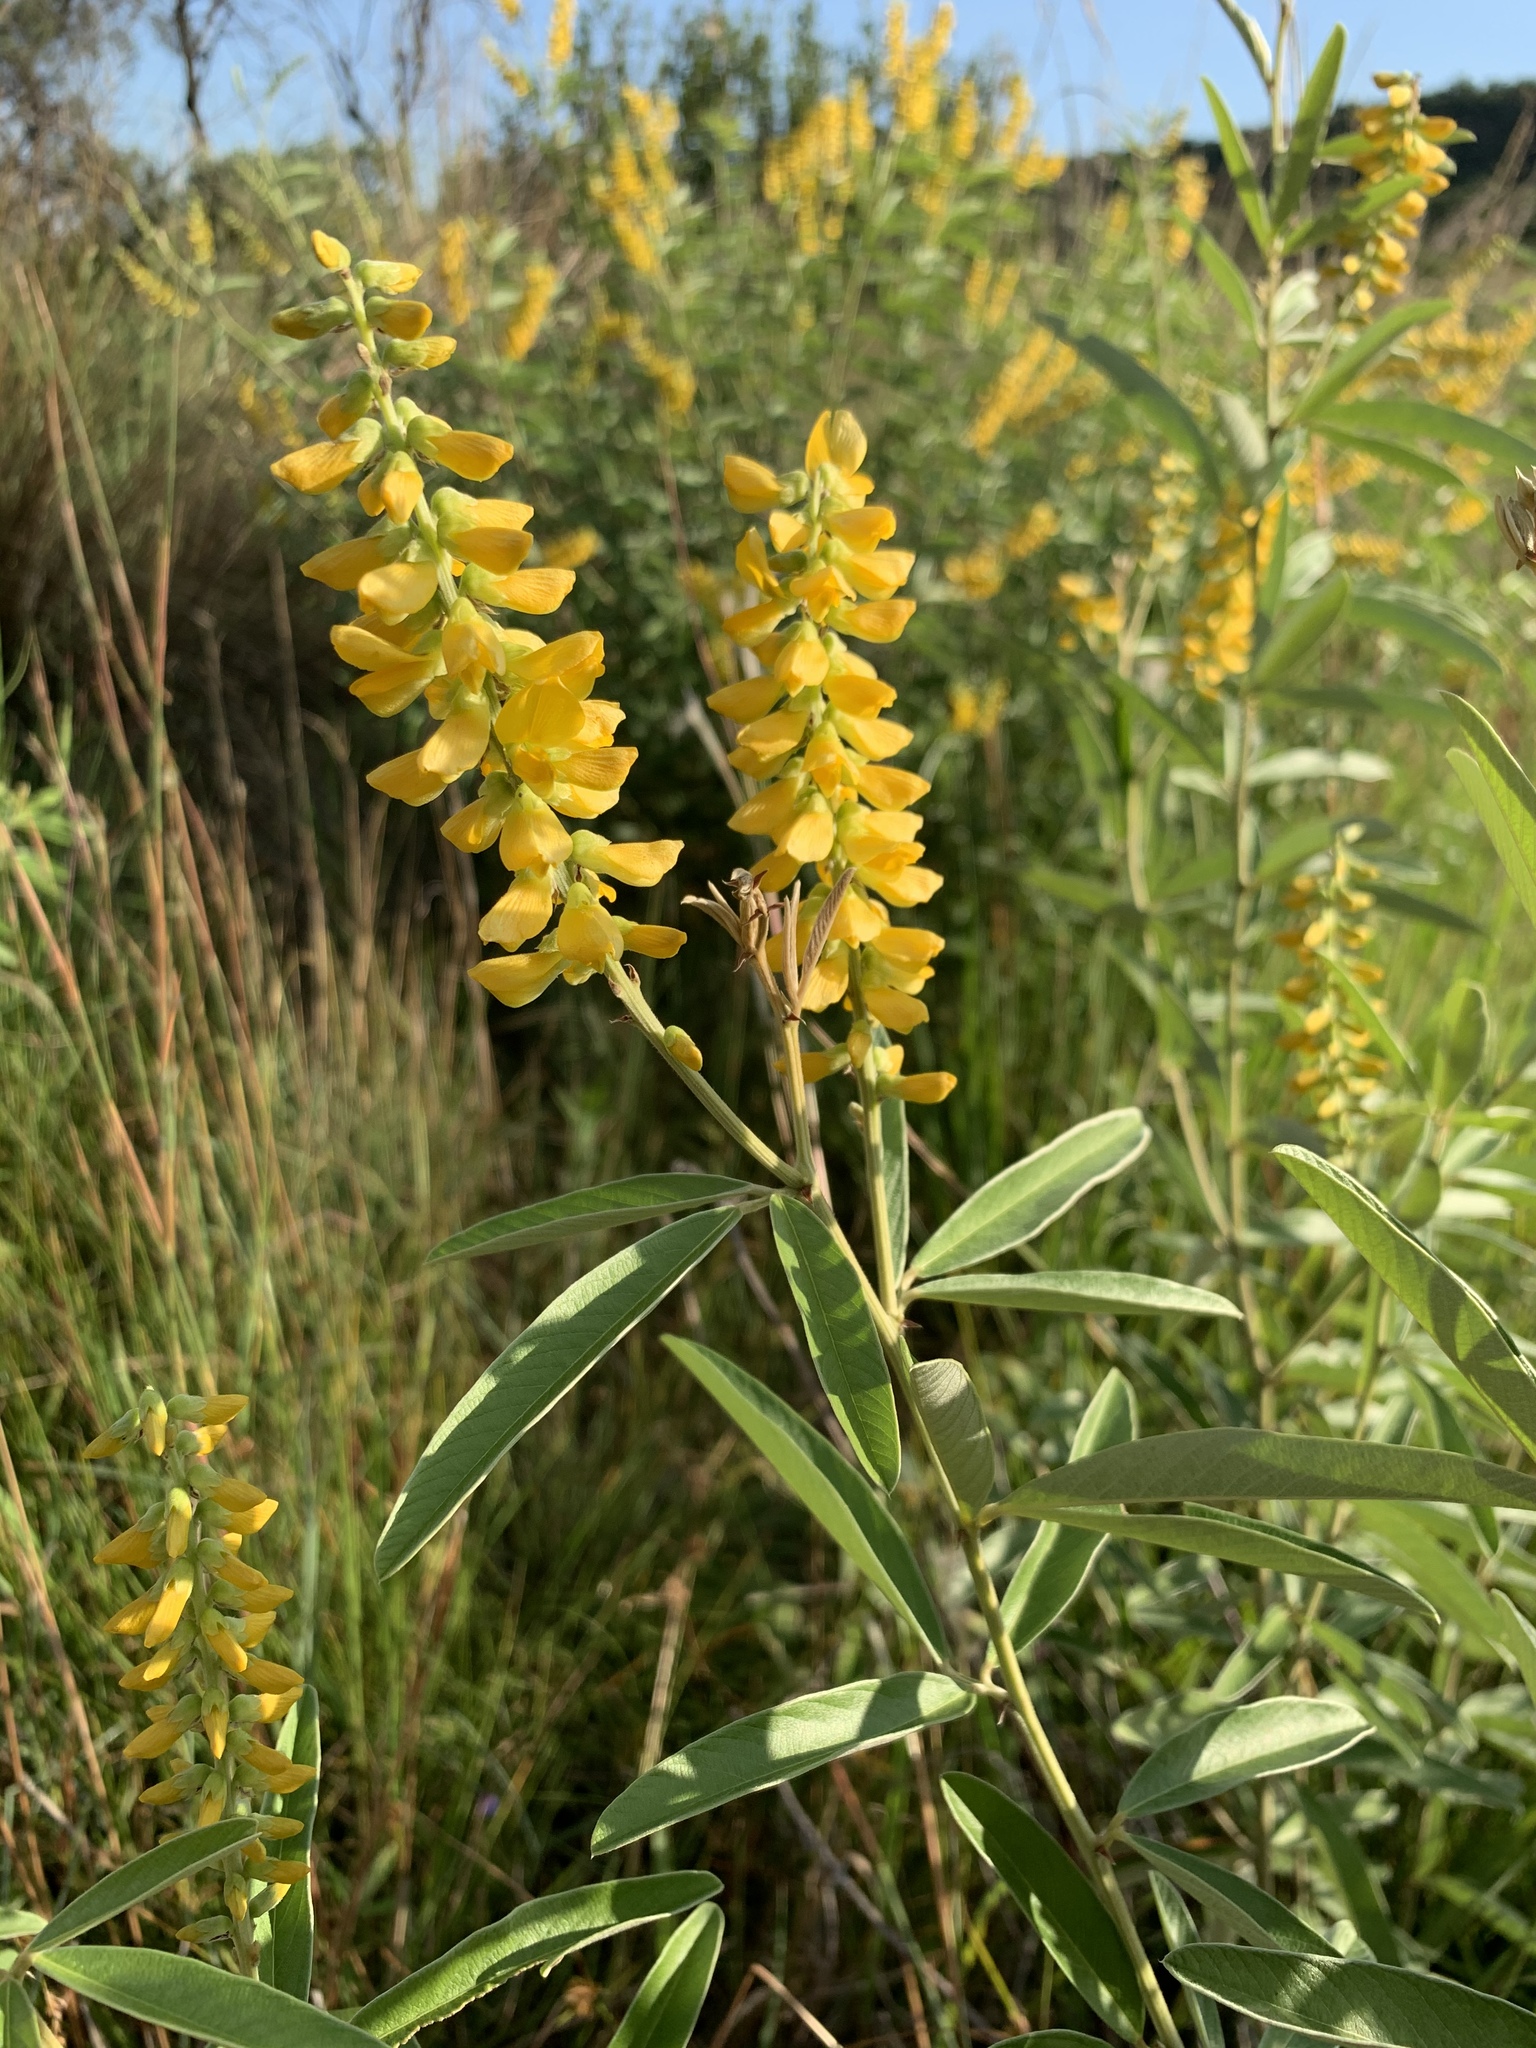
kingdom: Plantae
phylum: Tracheophyta
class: Magnoliopsida
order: Fabales
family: Fabaceae
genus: Eriosema
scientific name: Eriosema psoraleoides
